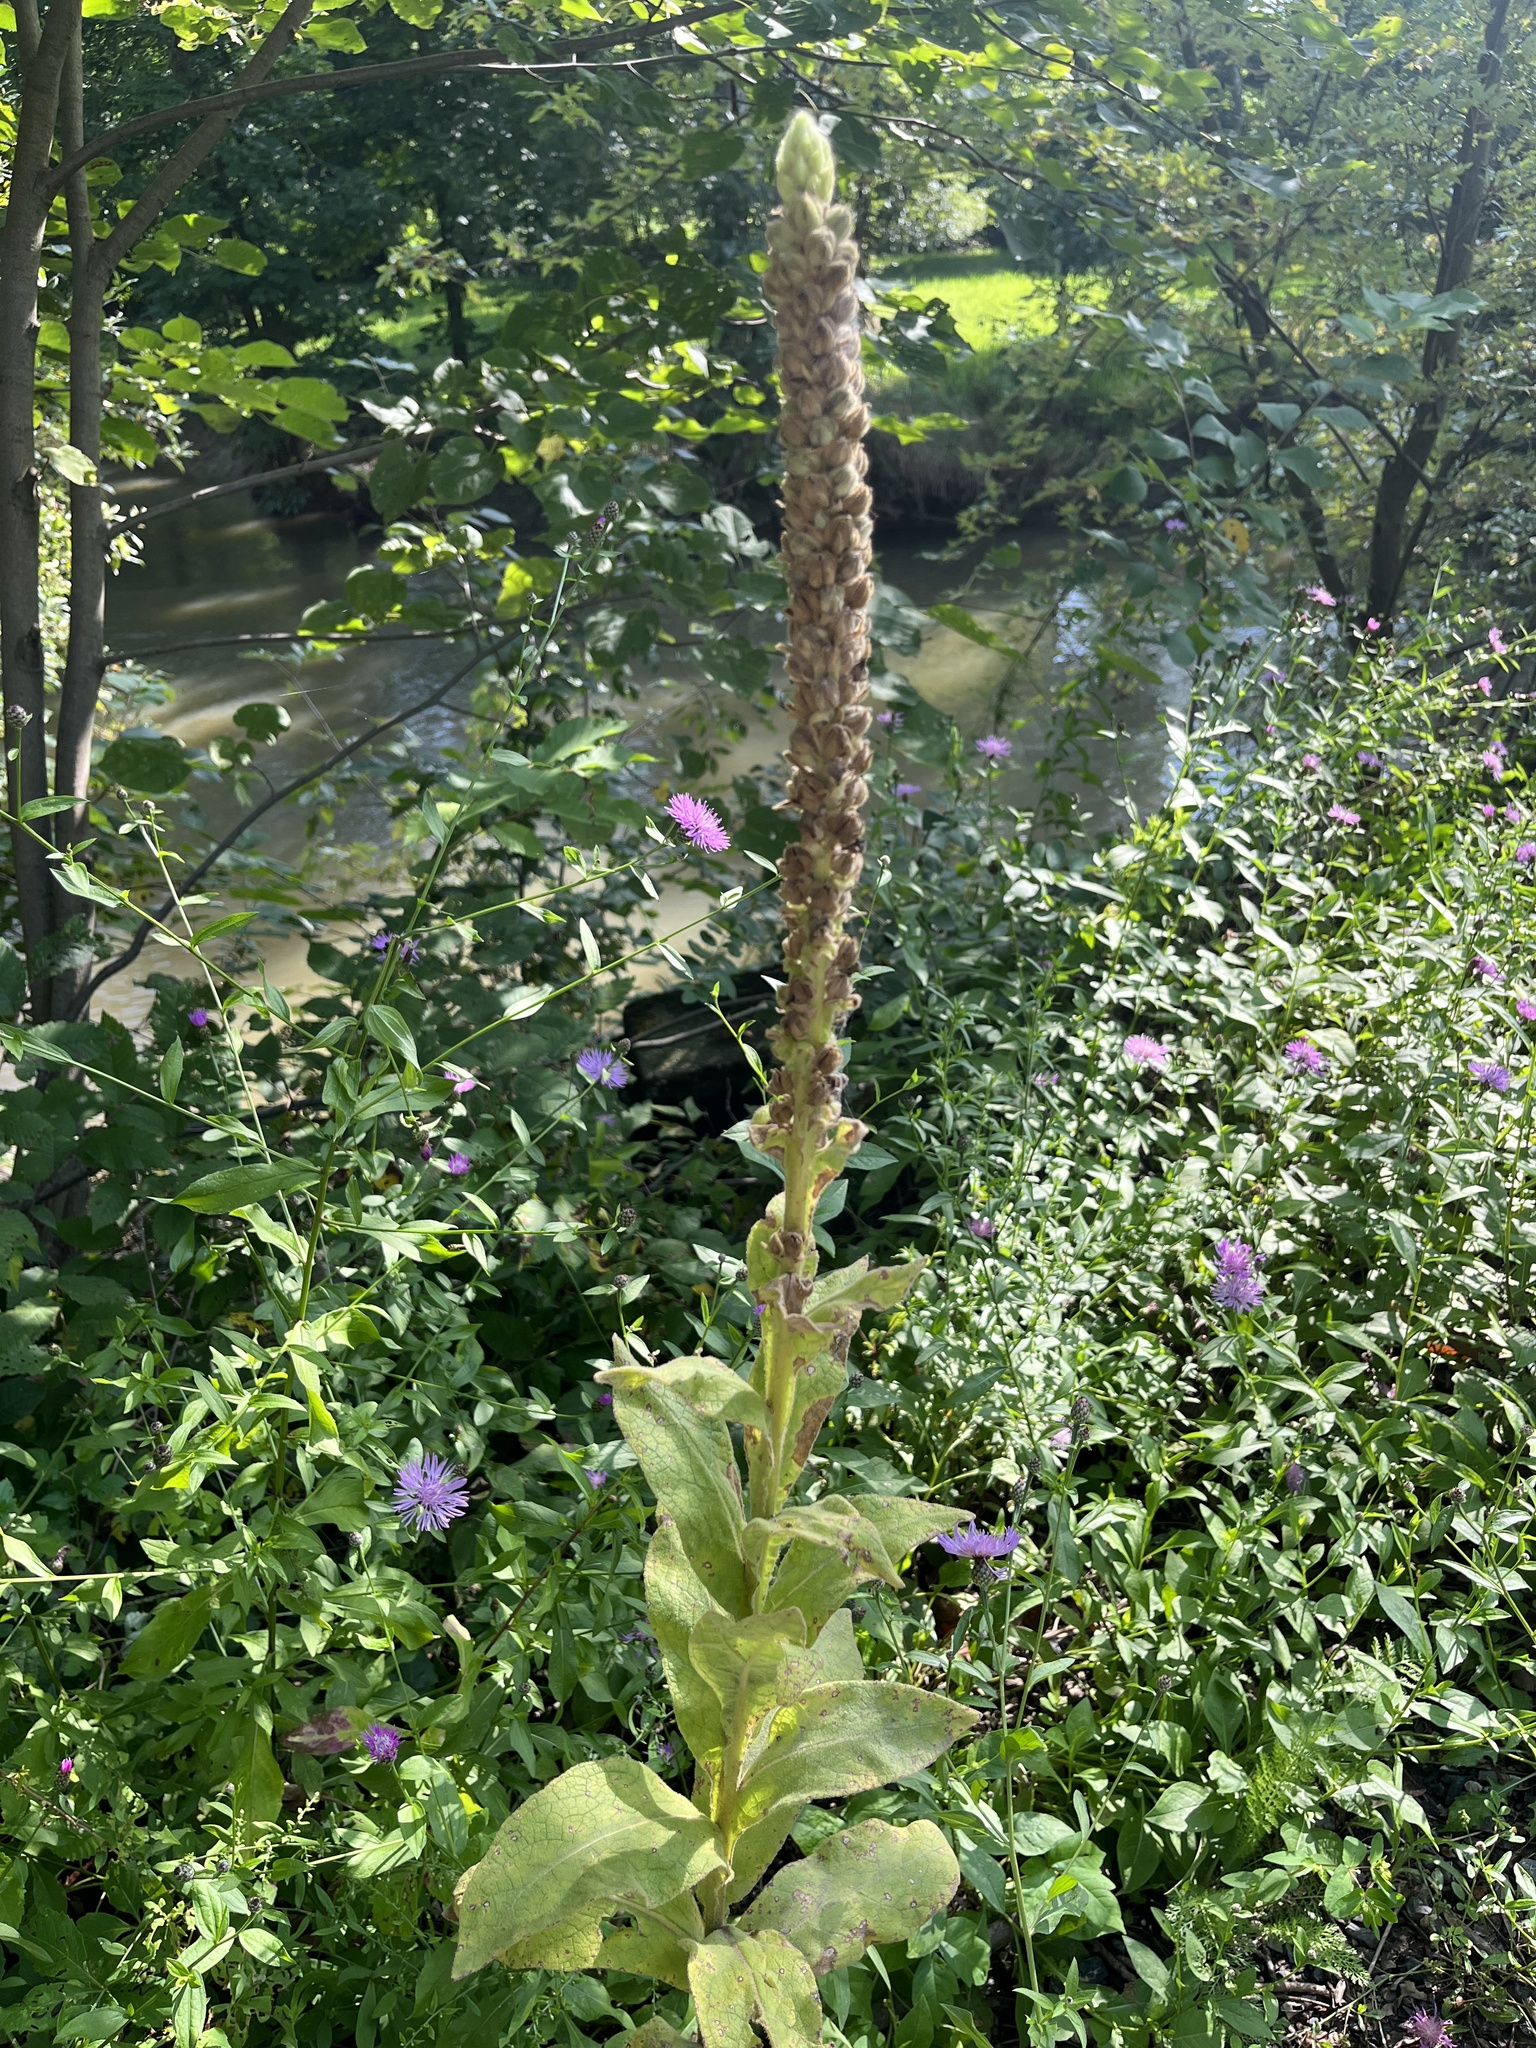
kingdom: Plantae
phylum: Tracheophyta
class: Magnoliopsida
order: Lamiales
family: Scrophulariaceae
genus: Verbascum
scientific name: Verbascum thapsus
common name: Common mullein
